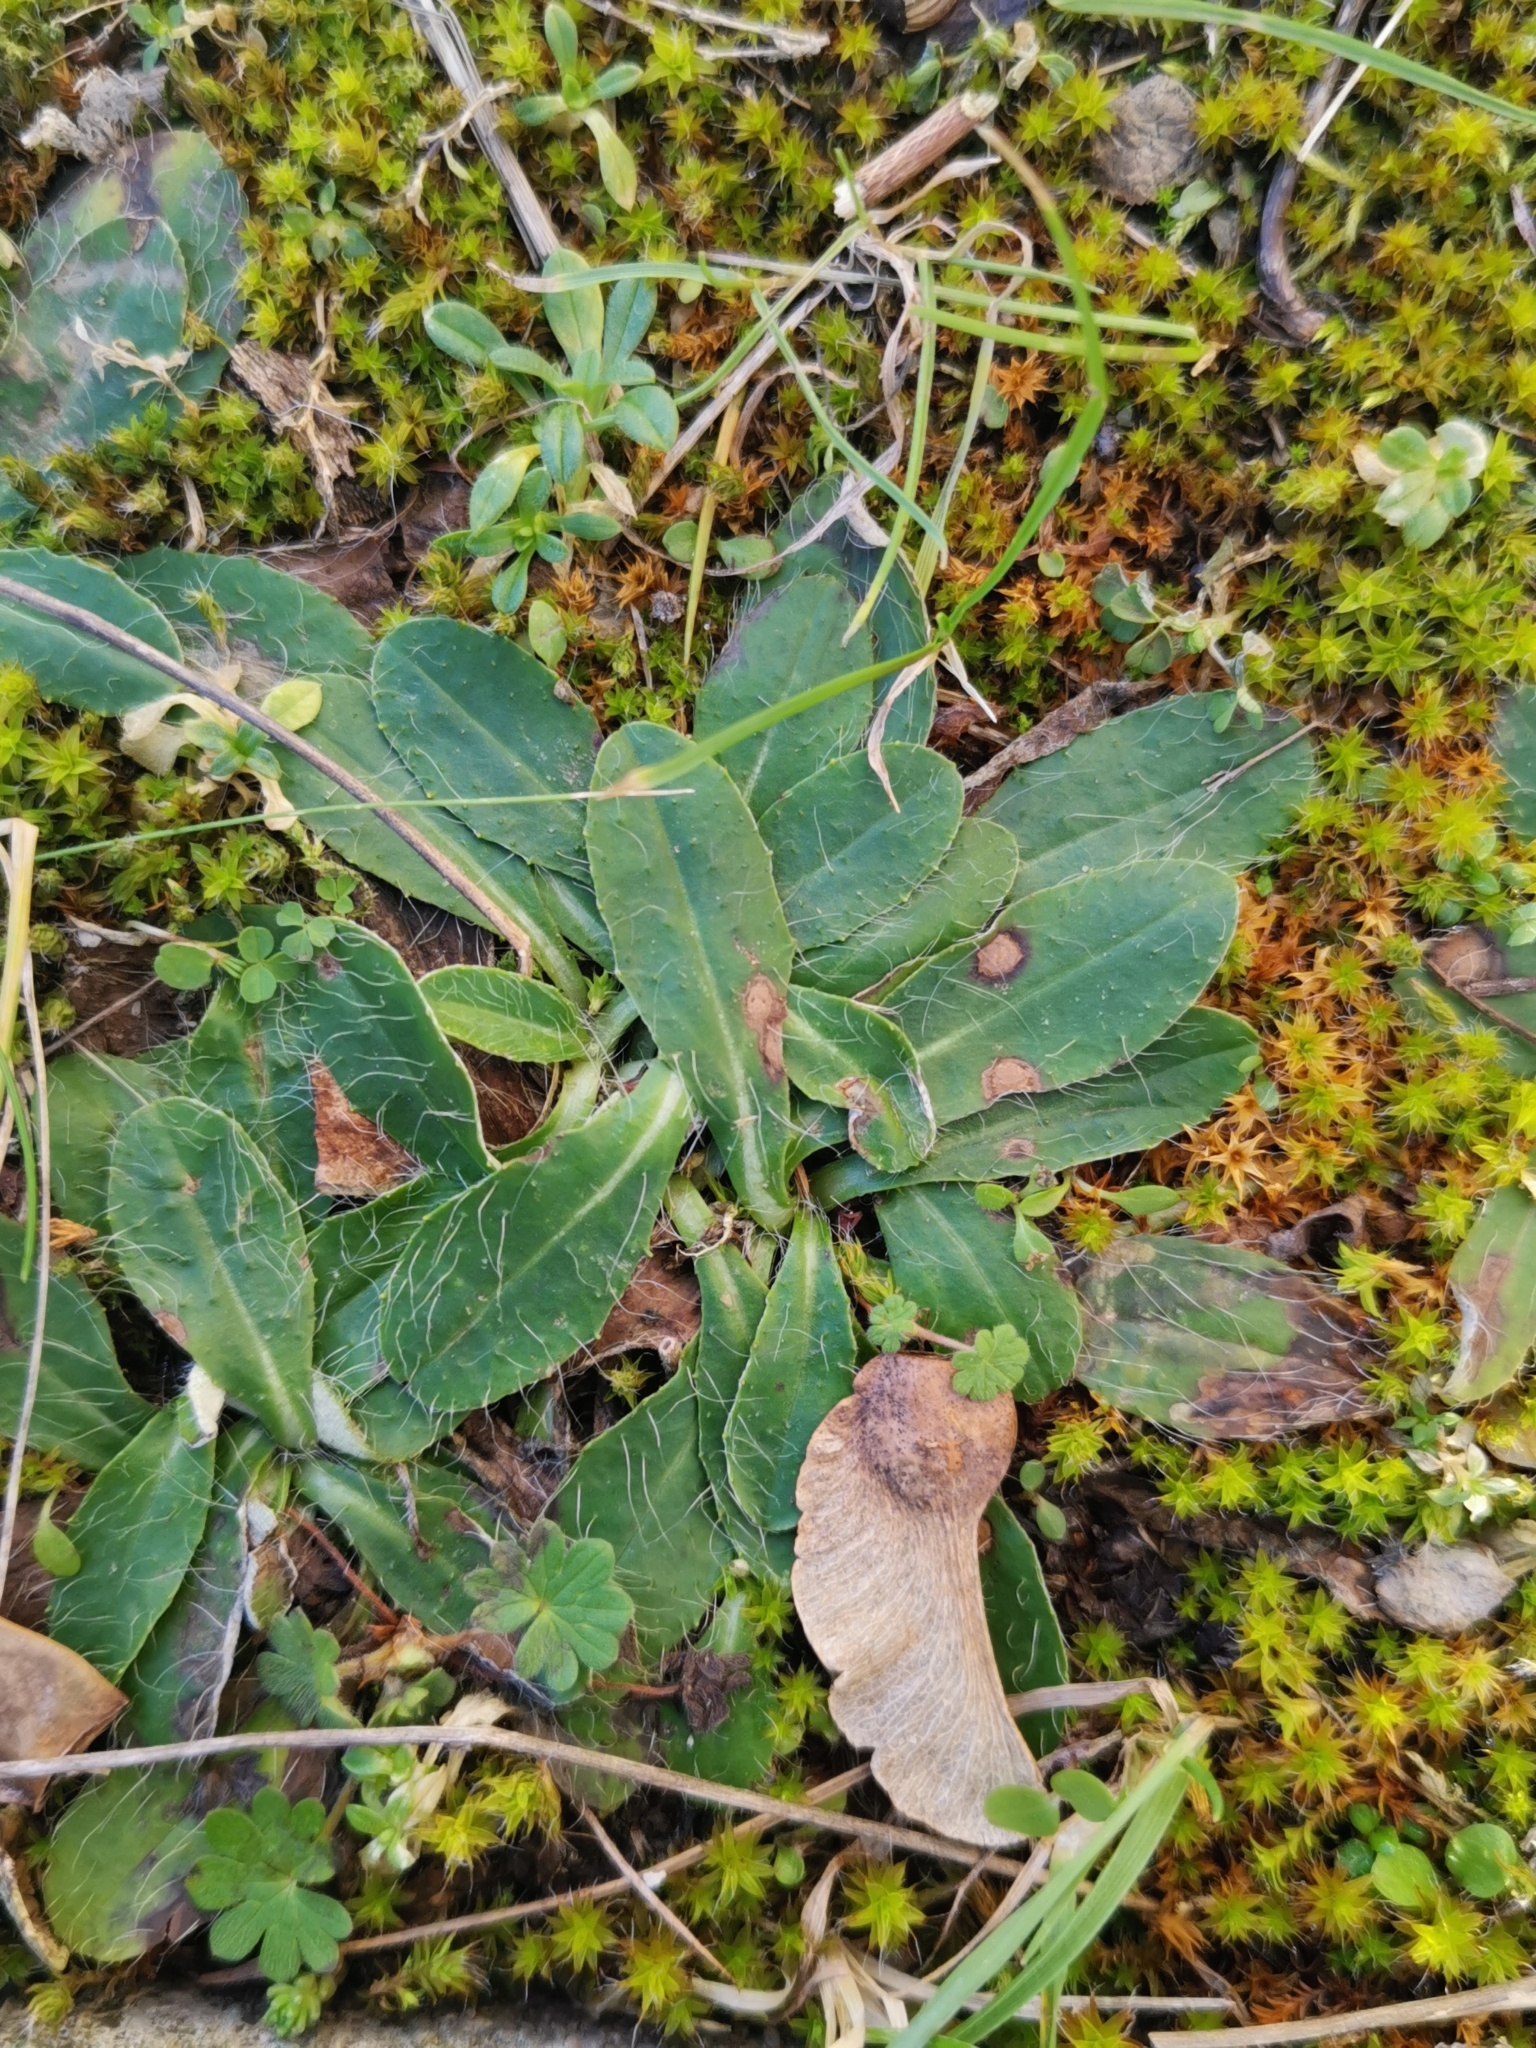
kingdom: Plantae
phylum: Tracheophyta
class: Magnoliopsida
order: Asterales
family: Asteraceae
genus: Pilosella
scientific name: Pilosella officinarum
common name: Mouse-ear hawkweed
